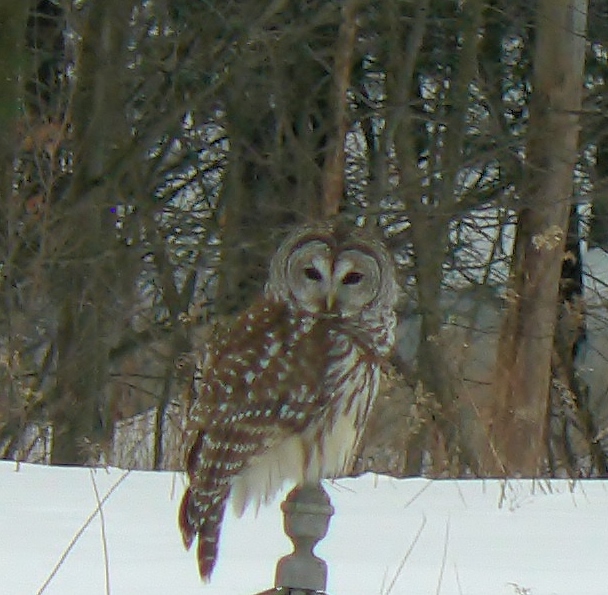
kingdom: Animalia
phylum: Chordata
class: Aves
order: Strigiformes
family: Strigidae
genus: Strix
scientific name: Strix varia
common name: Barred owl
